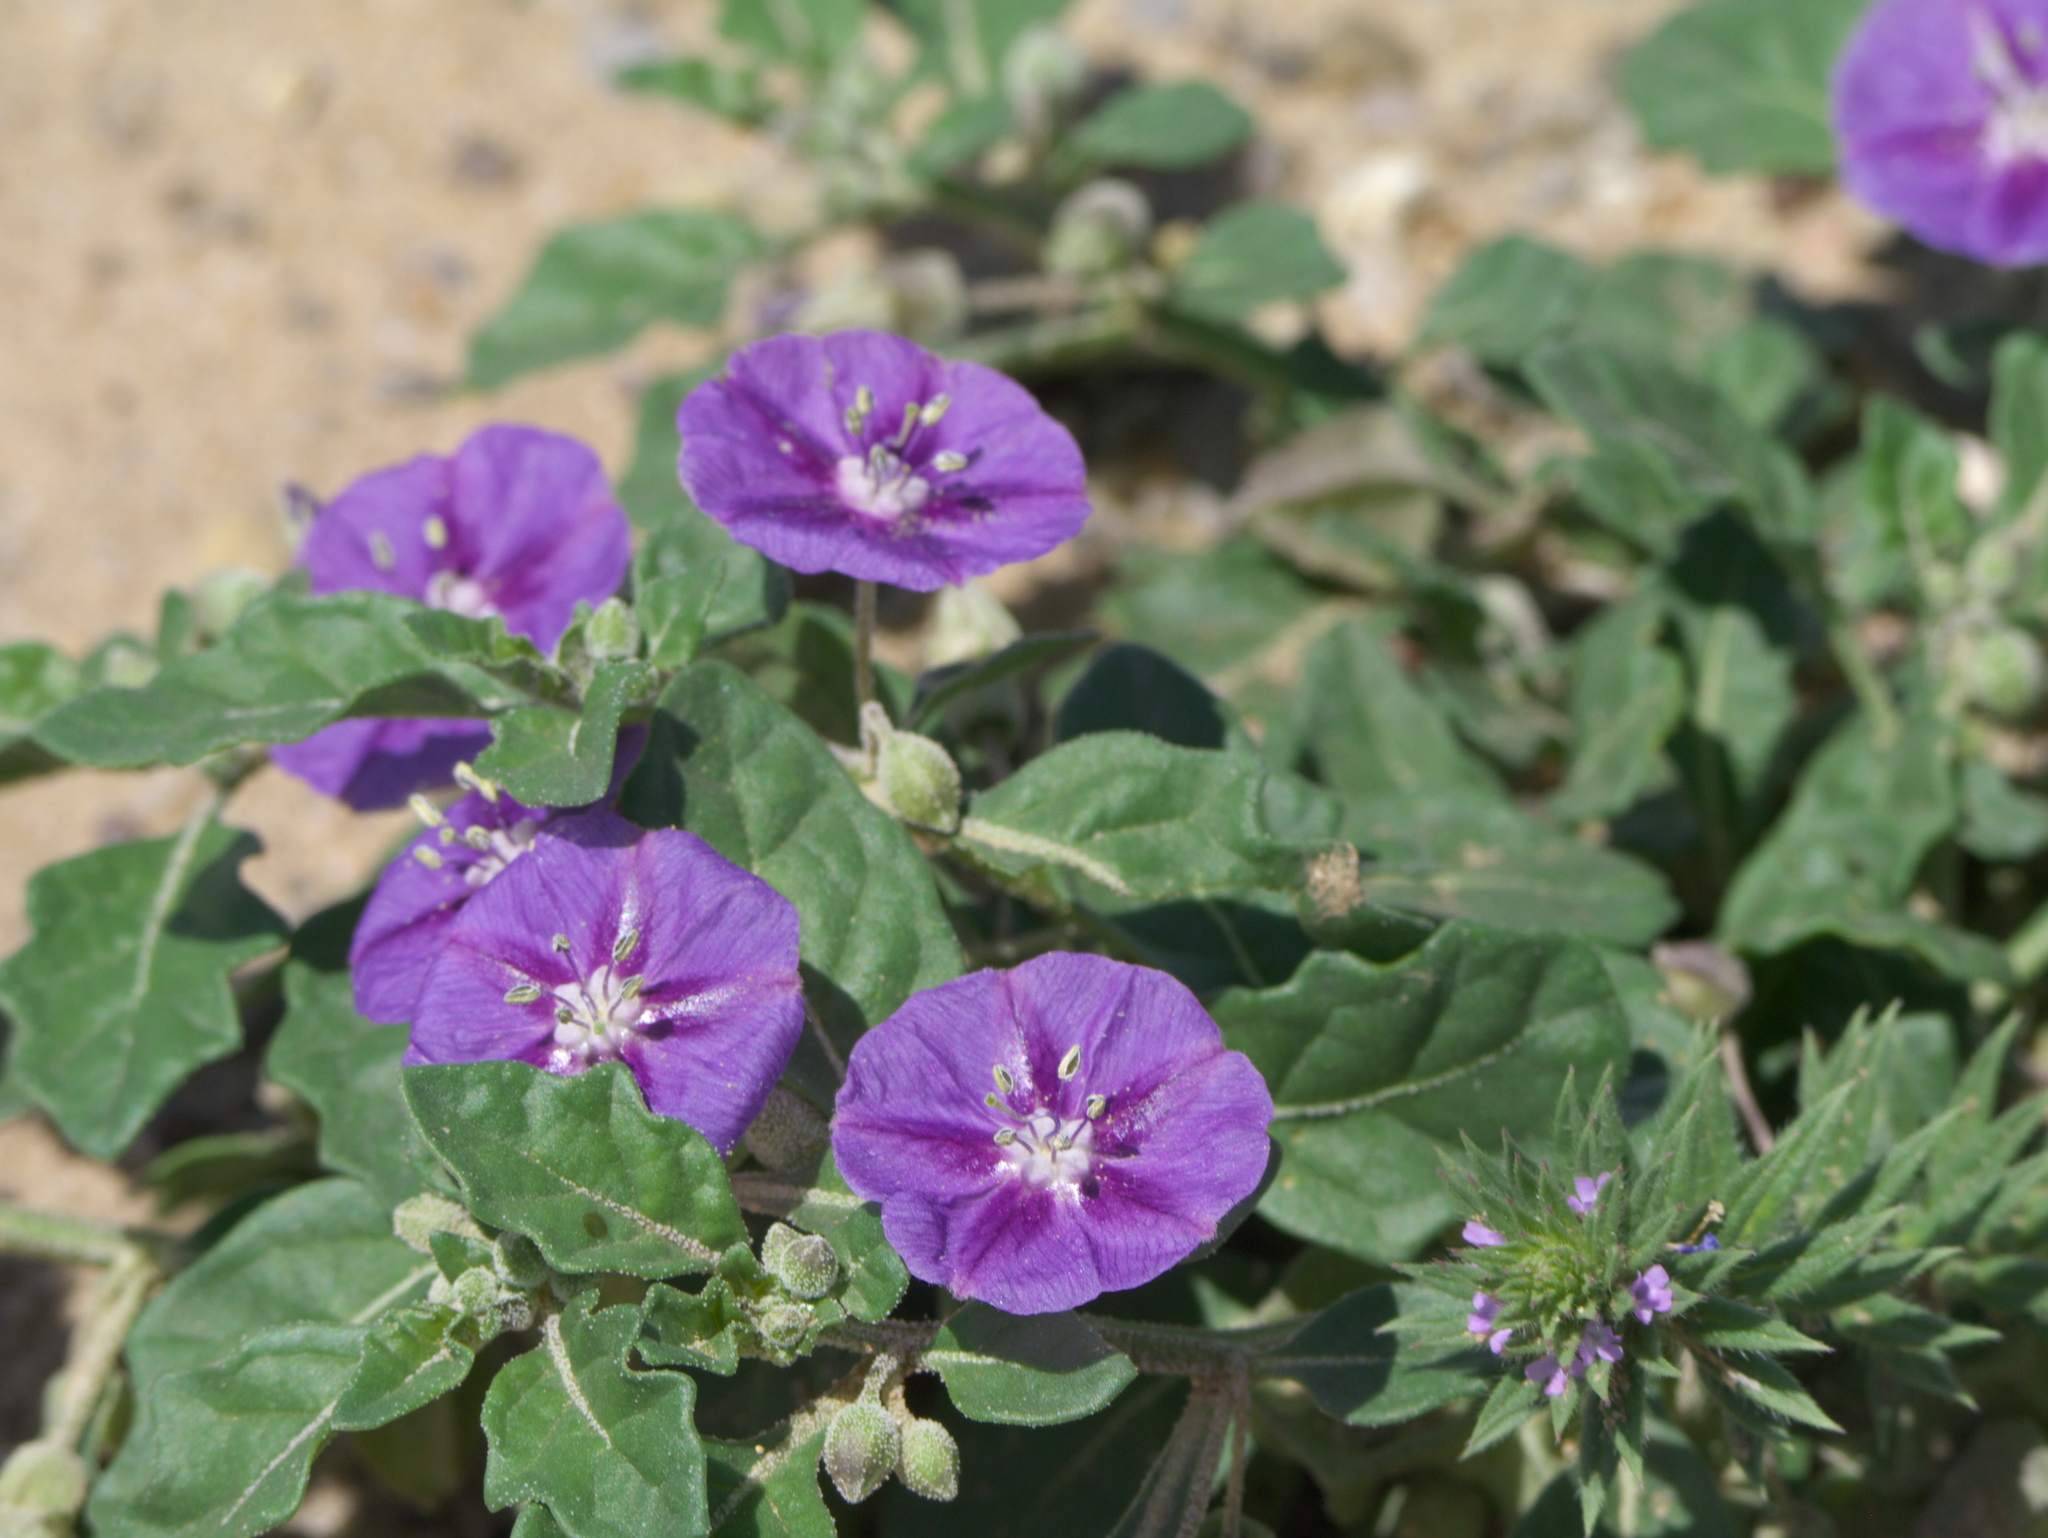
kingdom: Plantae
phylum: Tracheophyta
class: Magnoliopsida
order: Solanales
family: Solanaceae
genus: Quincula
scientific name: Quincula lobata
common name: Purple-ground-cherry
